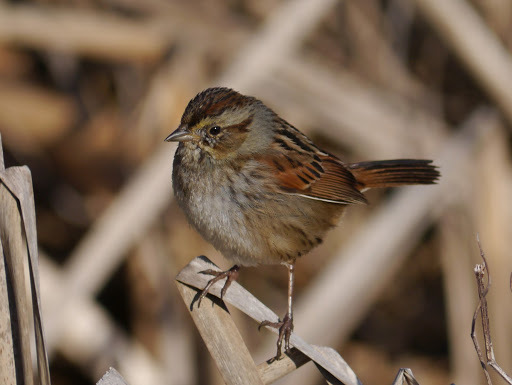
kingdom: Animalia
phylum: Chordata
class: Aves
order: Passeriformes
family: Passerellidae
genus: Melospiza
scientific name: Melospiza georgiana
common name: Swamp sparrow
